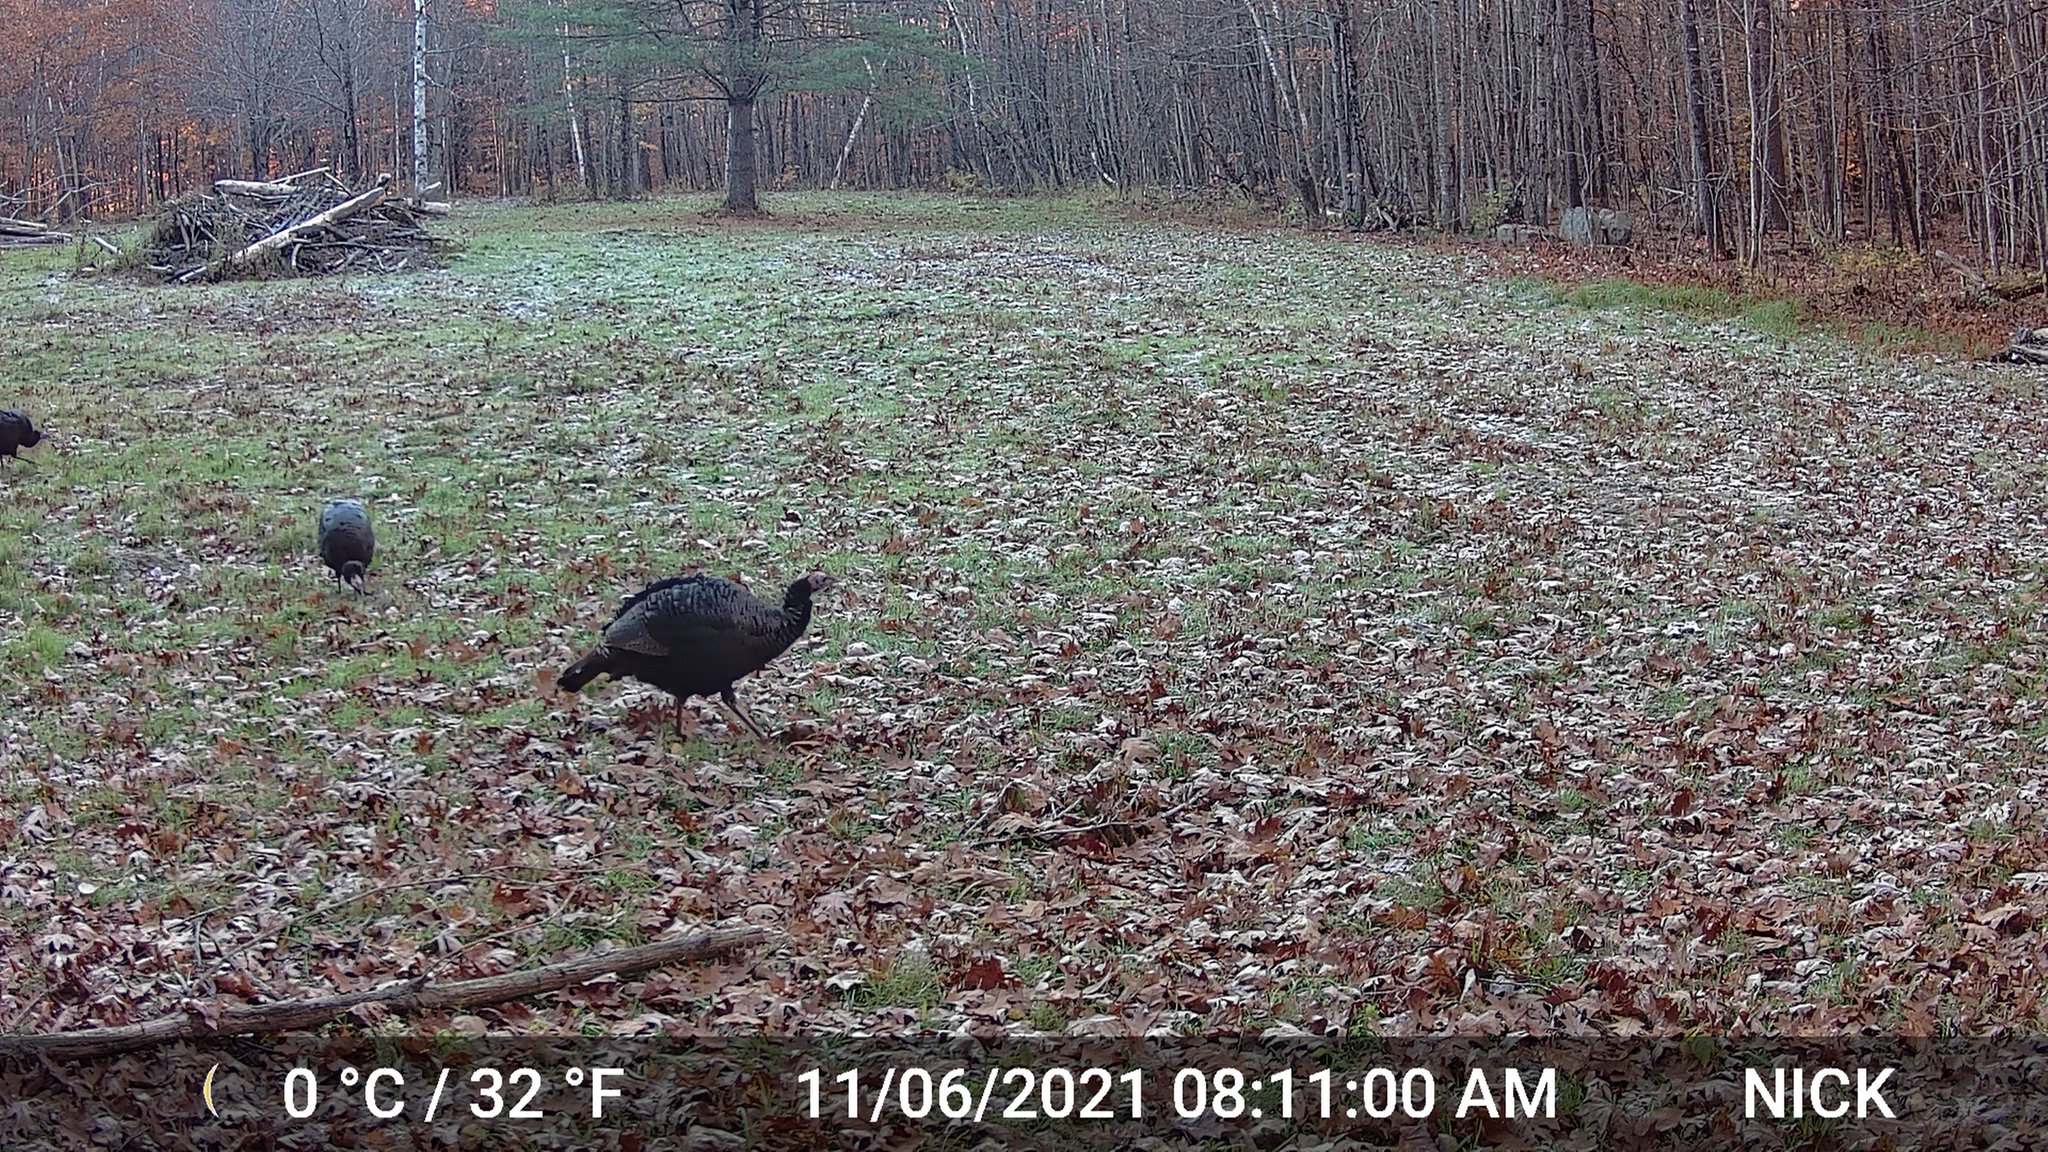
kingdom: Animalia
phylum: Chordata
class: Aves
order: Galliformes
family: Phasianidae
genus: Meleagris
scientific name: Meleagris gallopavo
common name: Wild turkey
